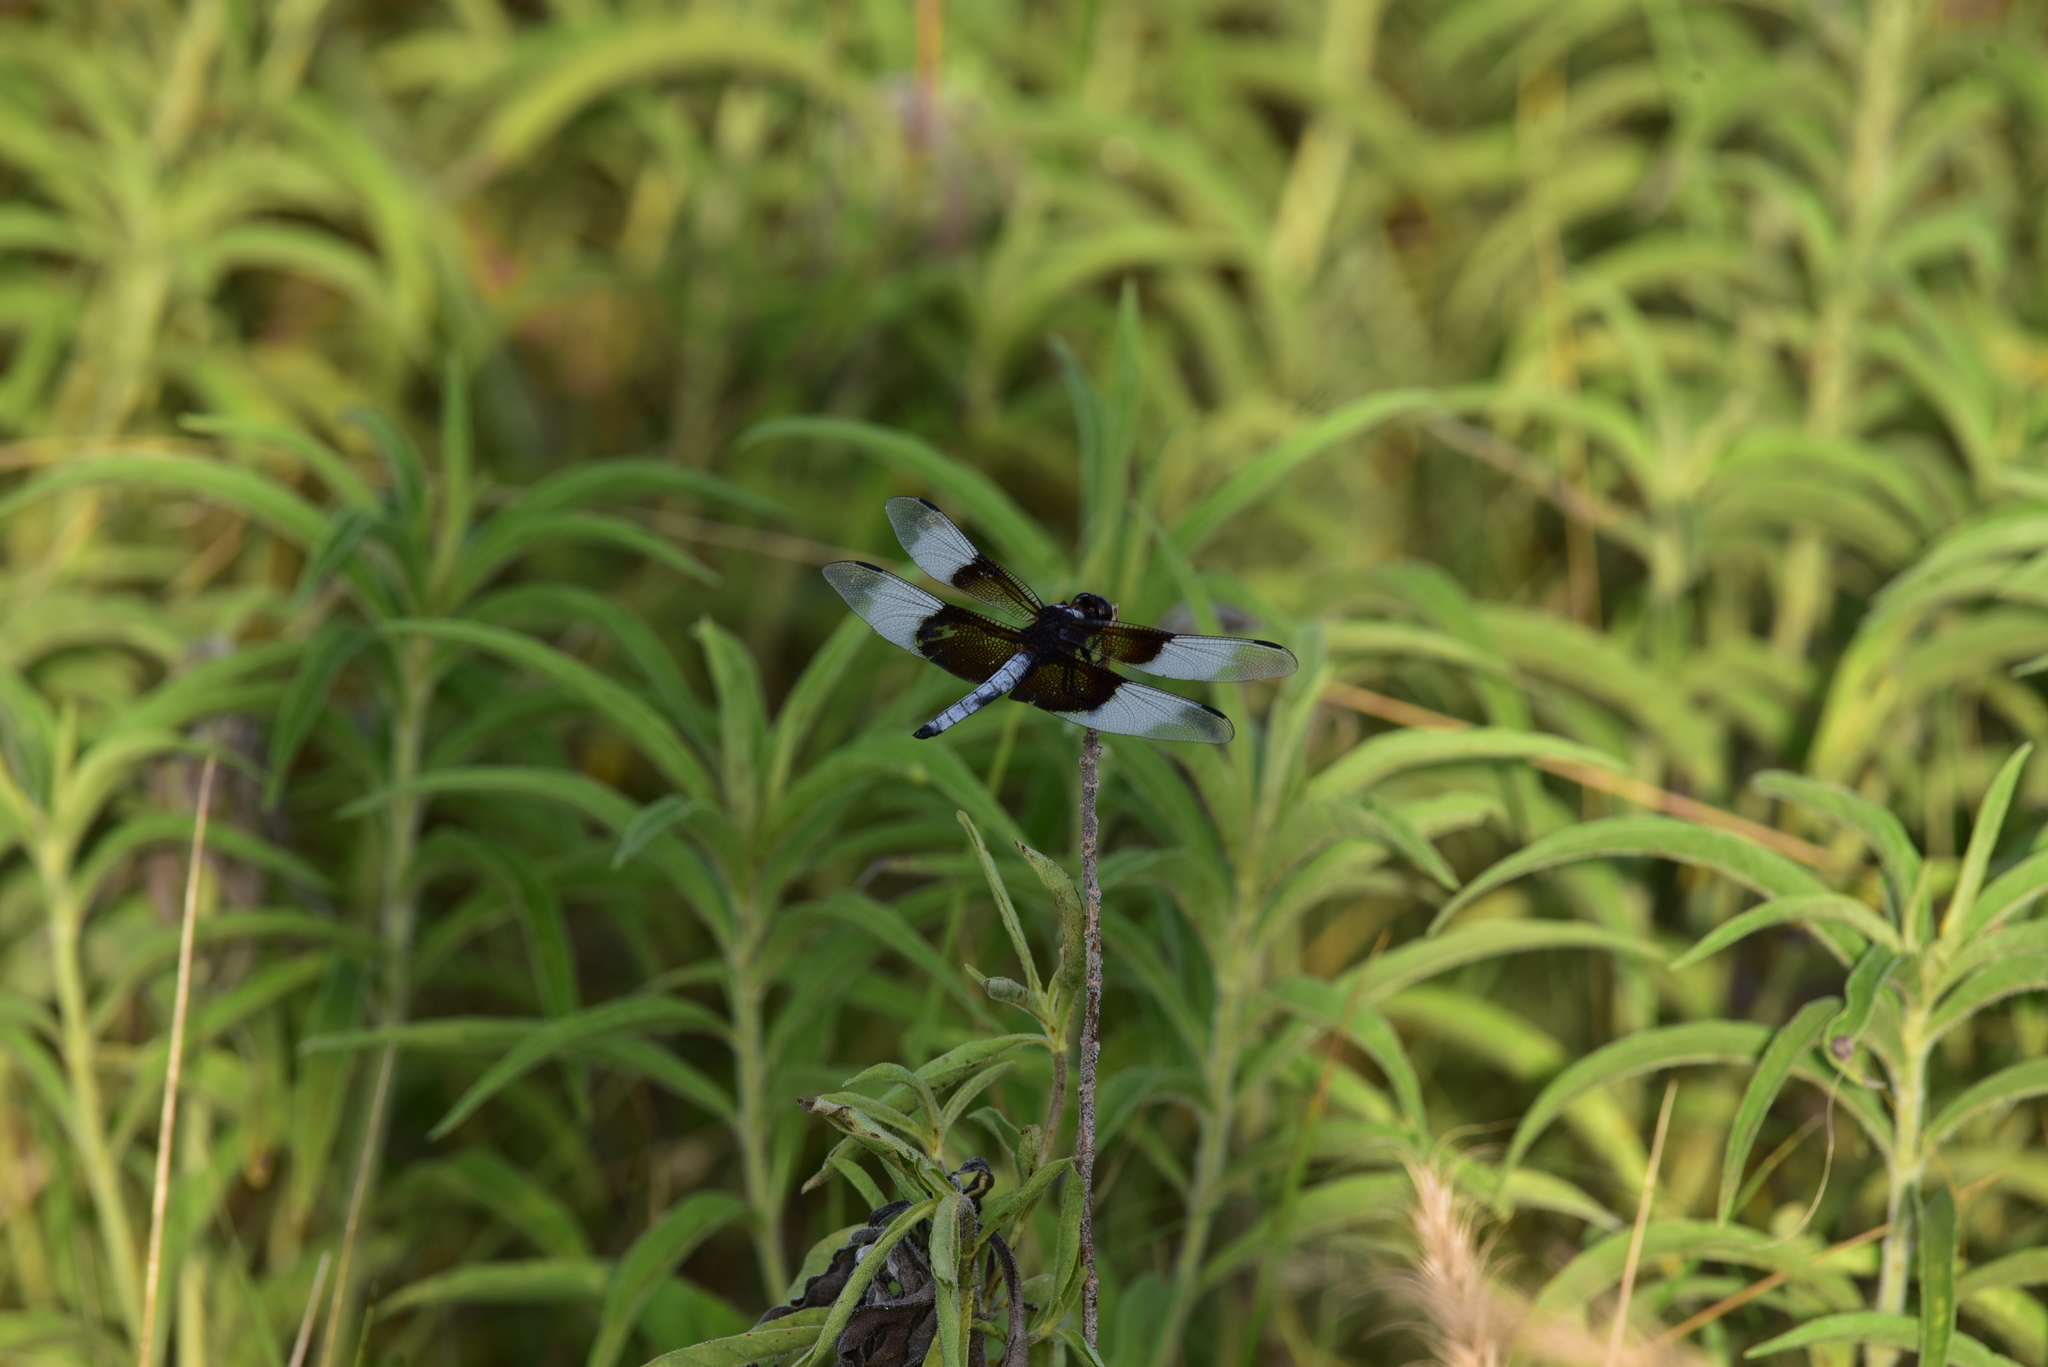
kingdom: Animalia
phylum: Arthropoda
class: Insecta
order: Odonata
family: Libellulidae
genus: Libellula
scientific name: Libellula luctuosa
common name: Widow skimmer
